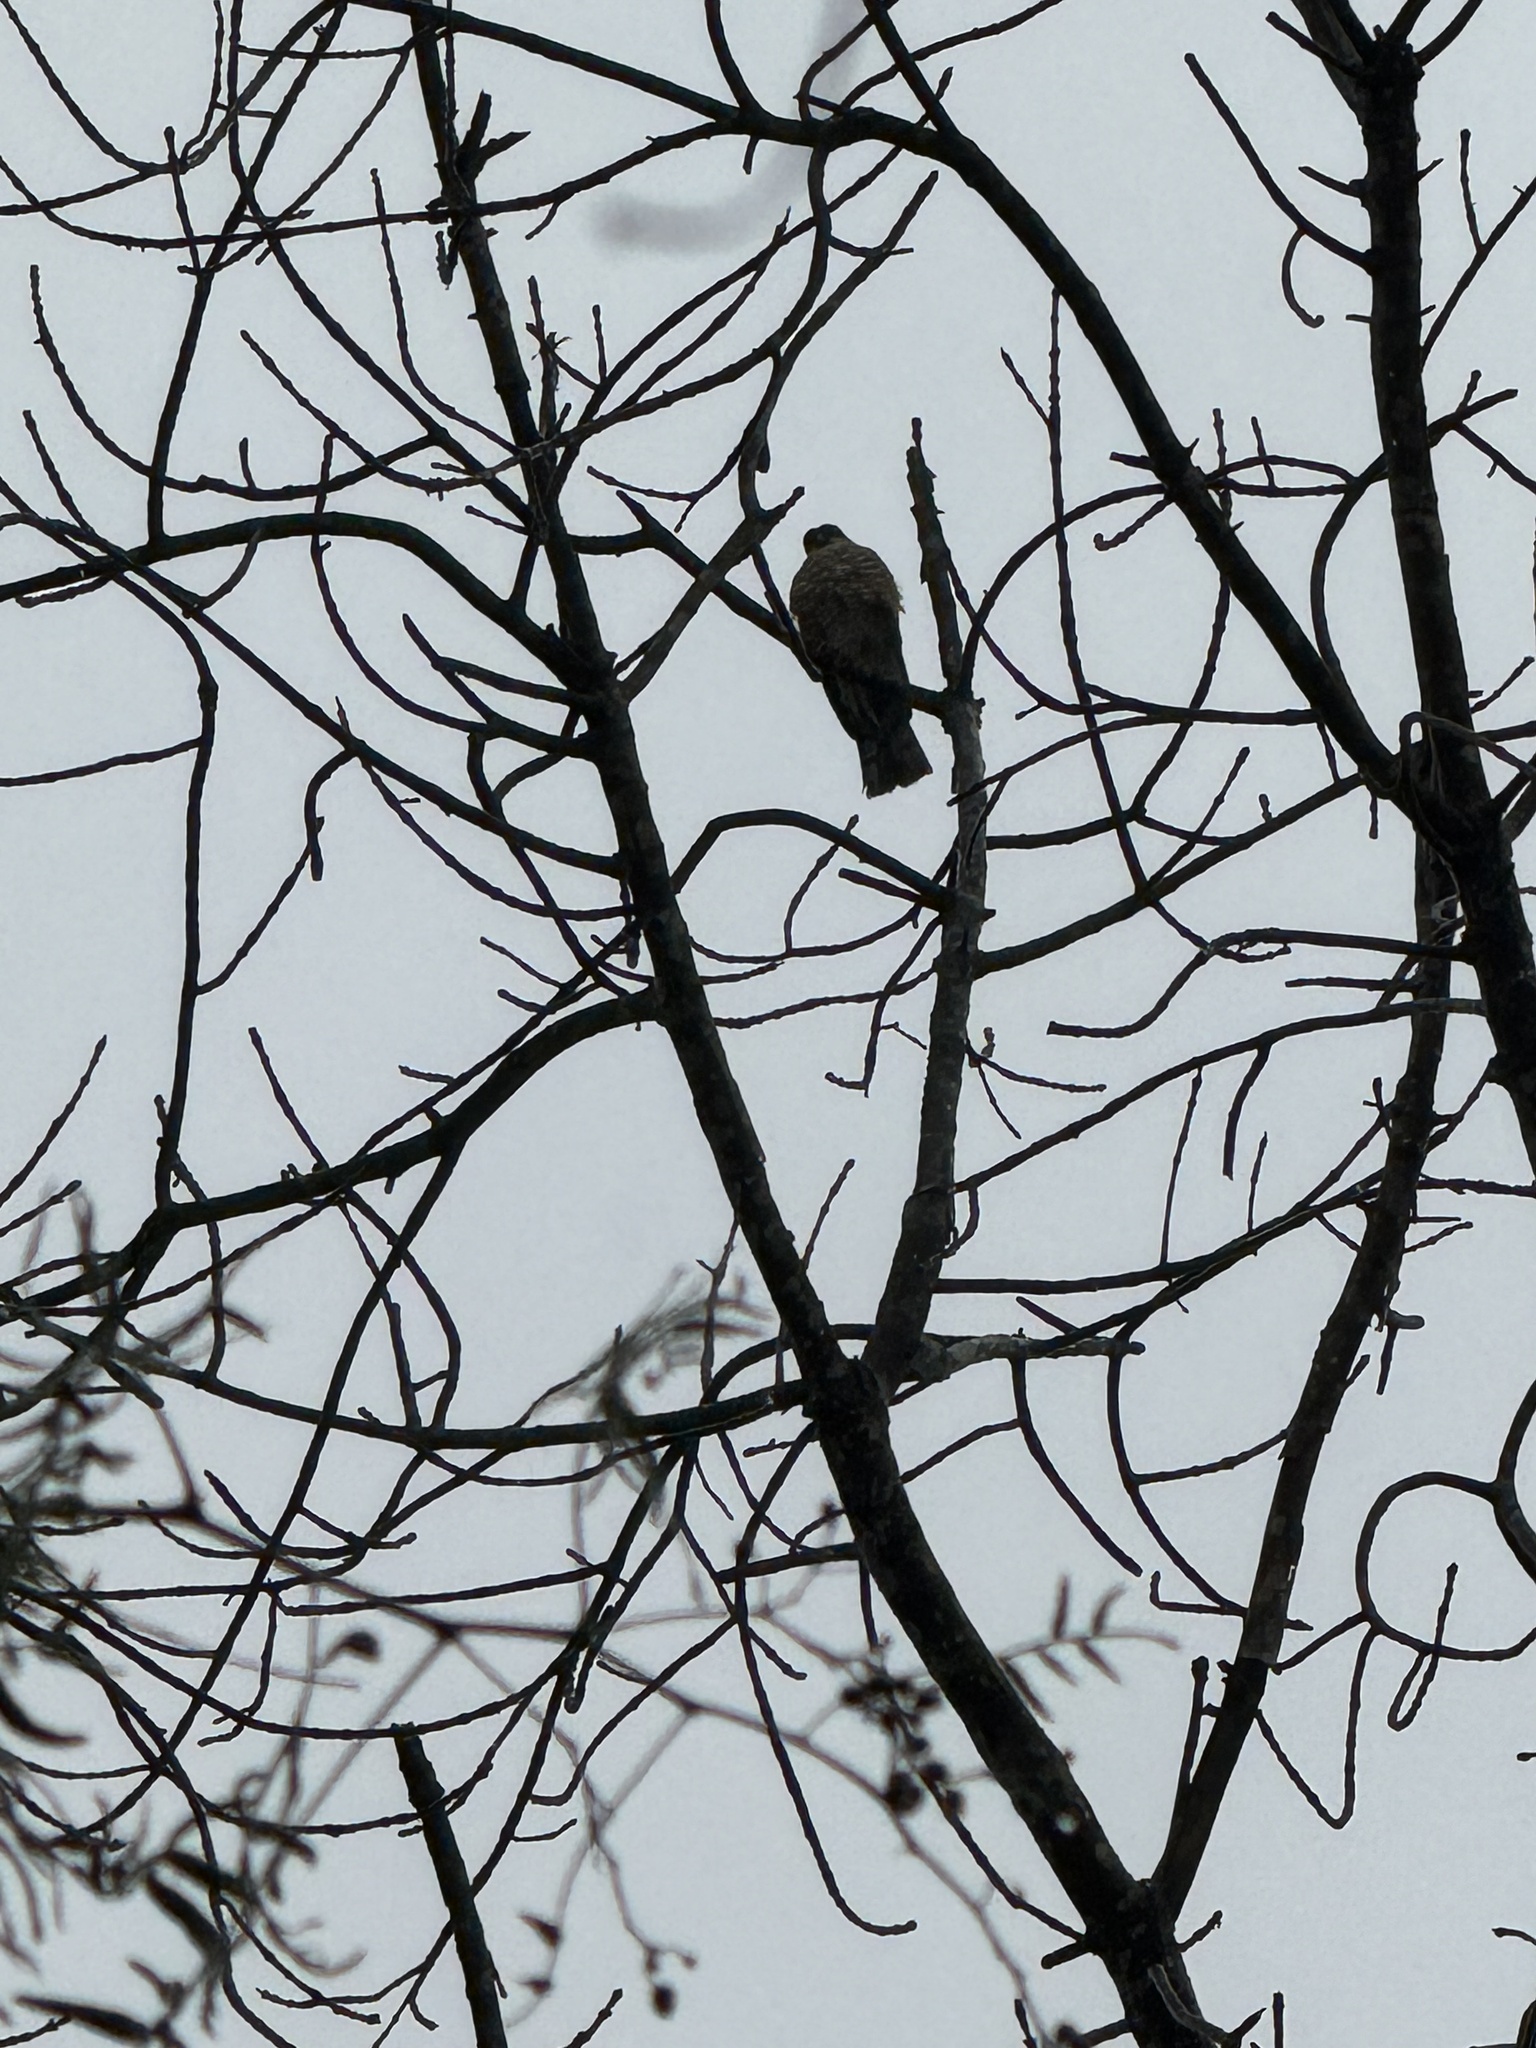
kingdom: Animalia
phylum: Chordata
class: Aves
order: Accipitriformes
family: Accipitridae
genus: Accipiter
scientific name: Accipiter striatus
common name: Sharp-shinned hawk
